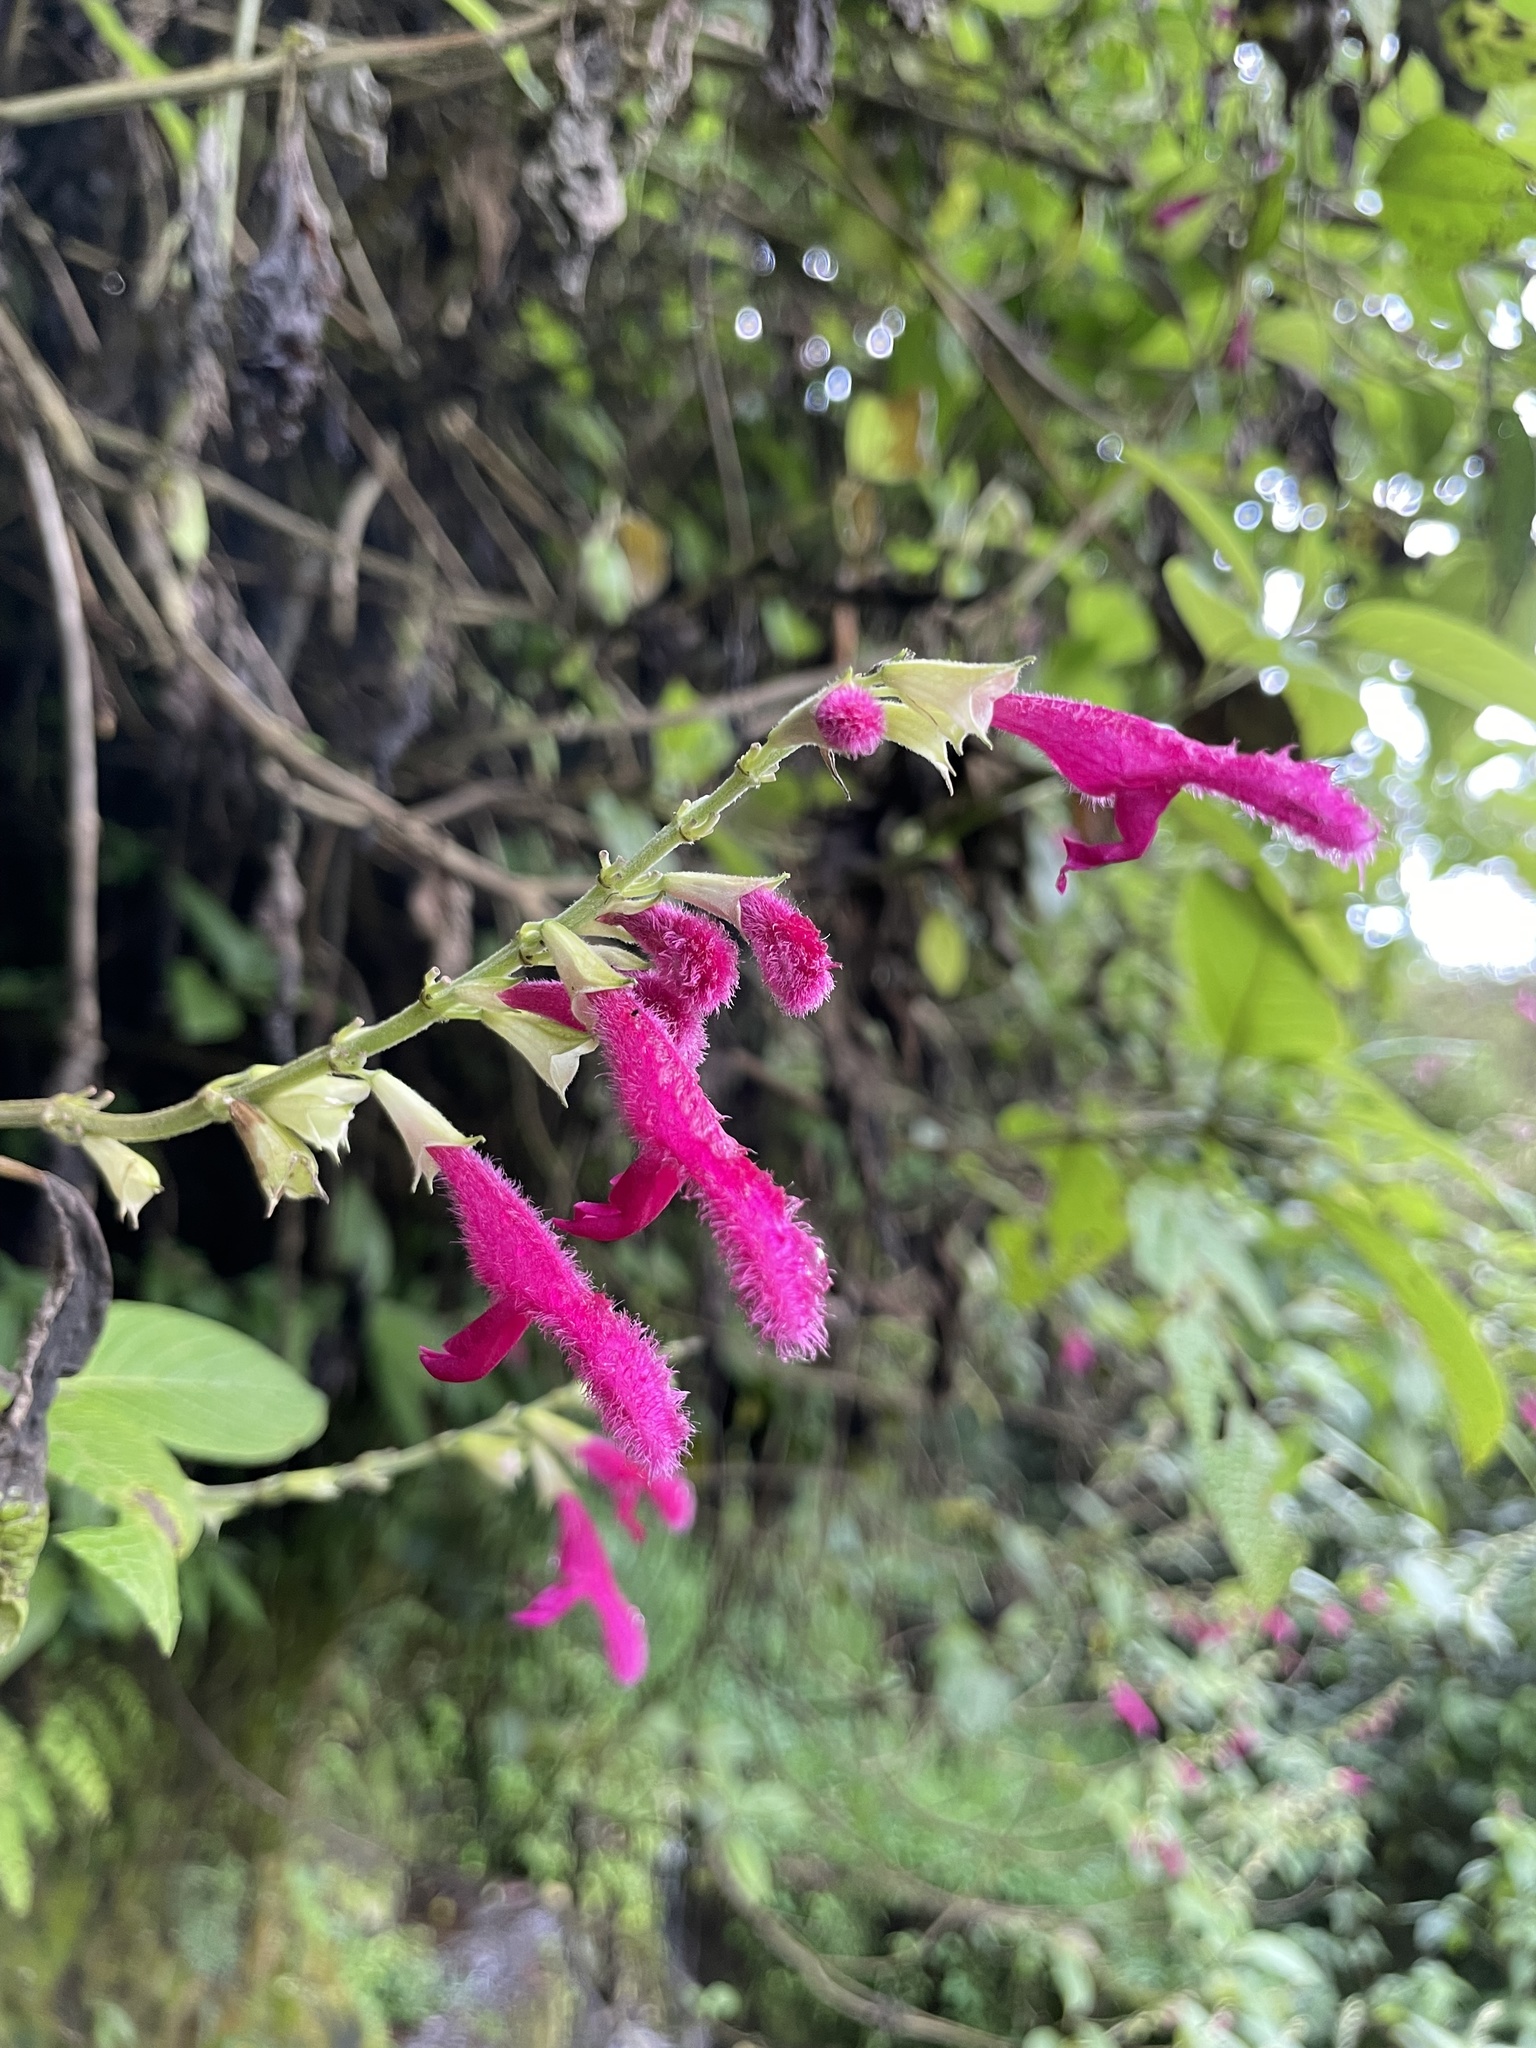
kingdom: Plantae
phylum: Tracheophyta
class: Magnoliopsida
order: Lamiales
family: Lamiaceae
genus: Salvia
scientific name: Salvia tortuosa
